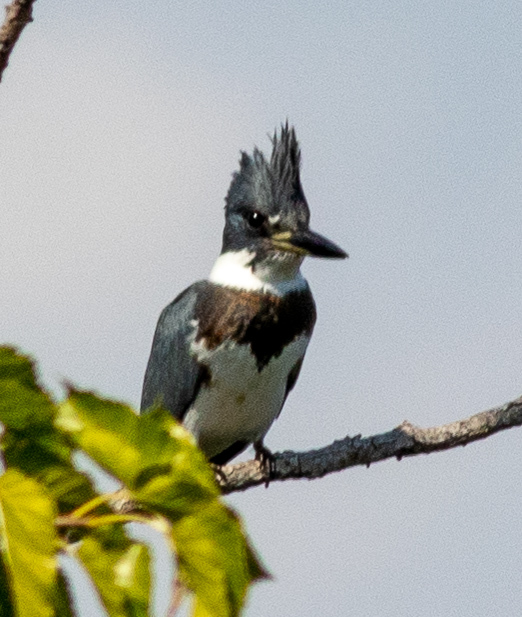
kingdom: Animalia
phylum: Chordata
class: Aves
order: Coraciiformes
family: Alcedinidae
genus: Megaceryle
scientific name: Megaceryle alcyon
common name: Belted kingfisher
